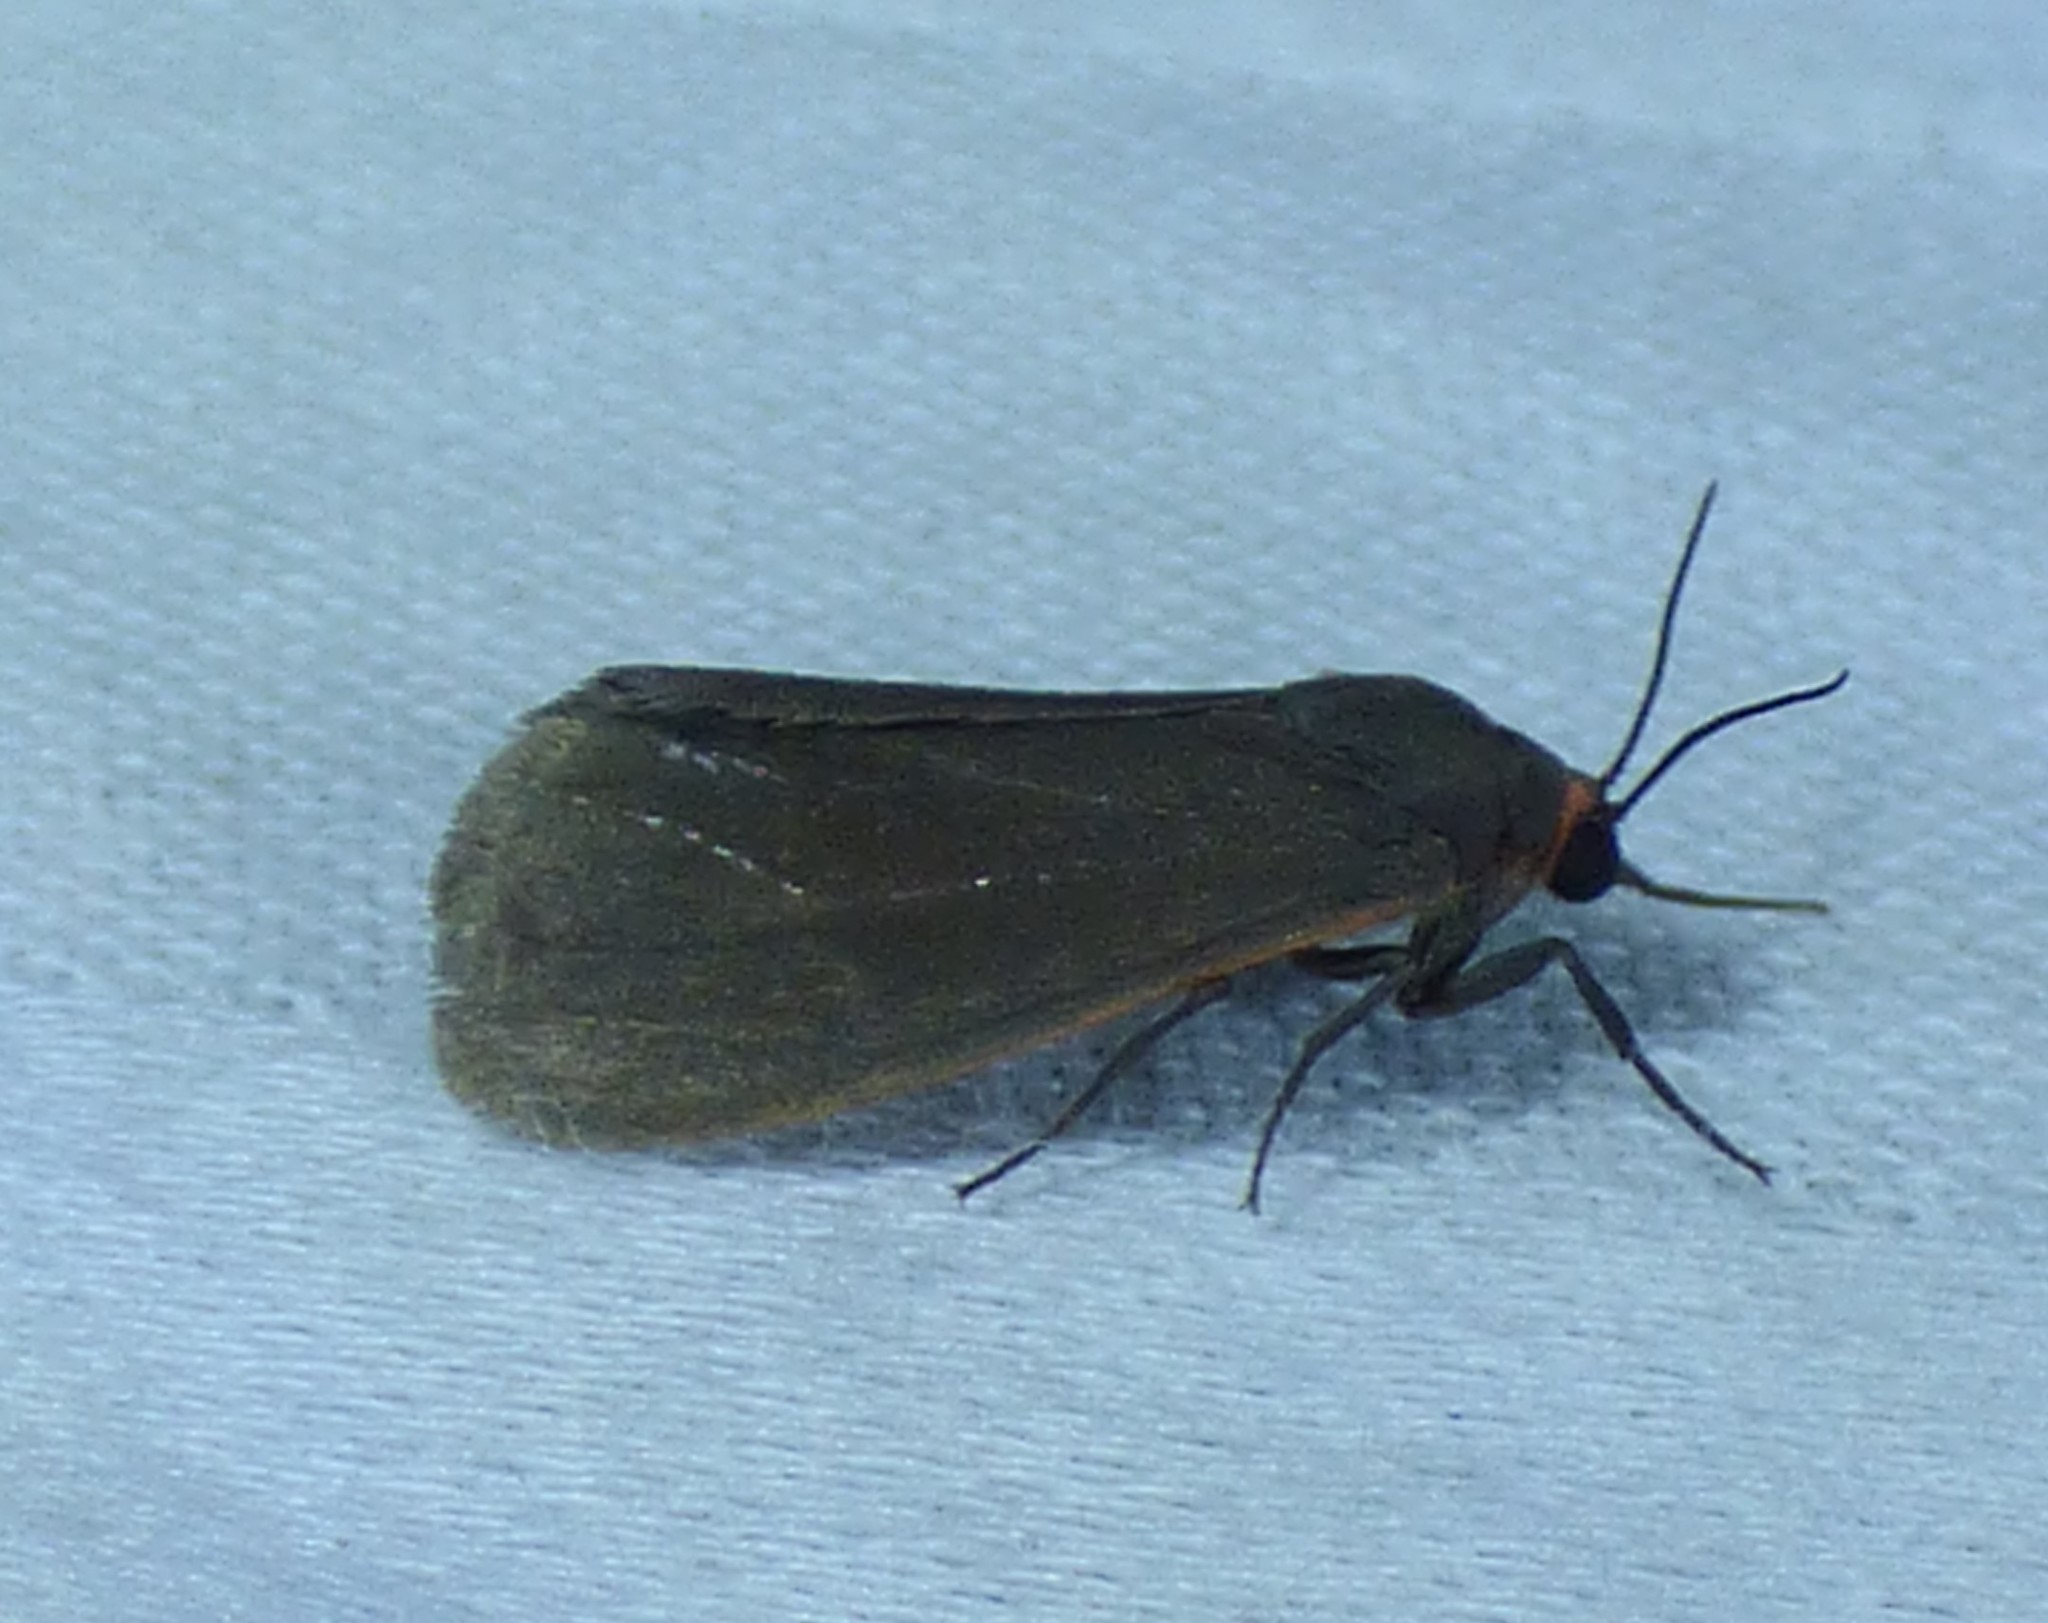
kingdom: Animalia
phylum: Arthropoda
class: Insecta
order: Lepidoptera
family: Erebidae
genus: Virbia
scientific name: Virbia laeta
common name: Joyful holomelina moth
